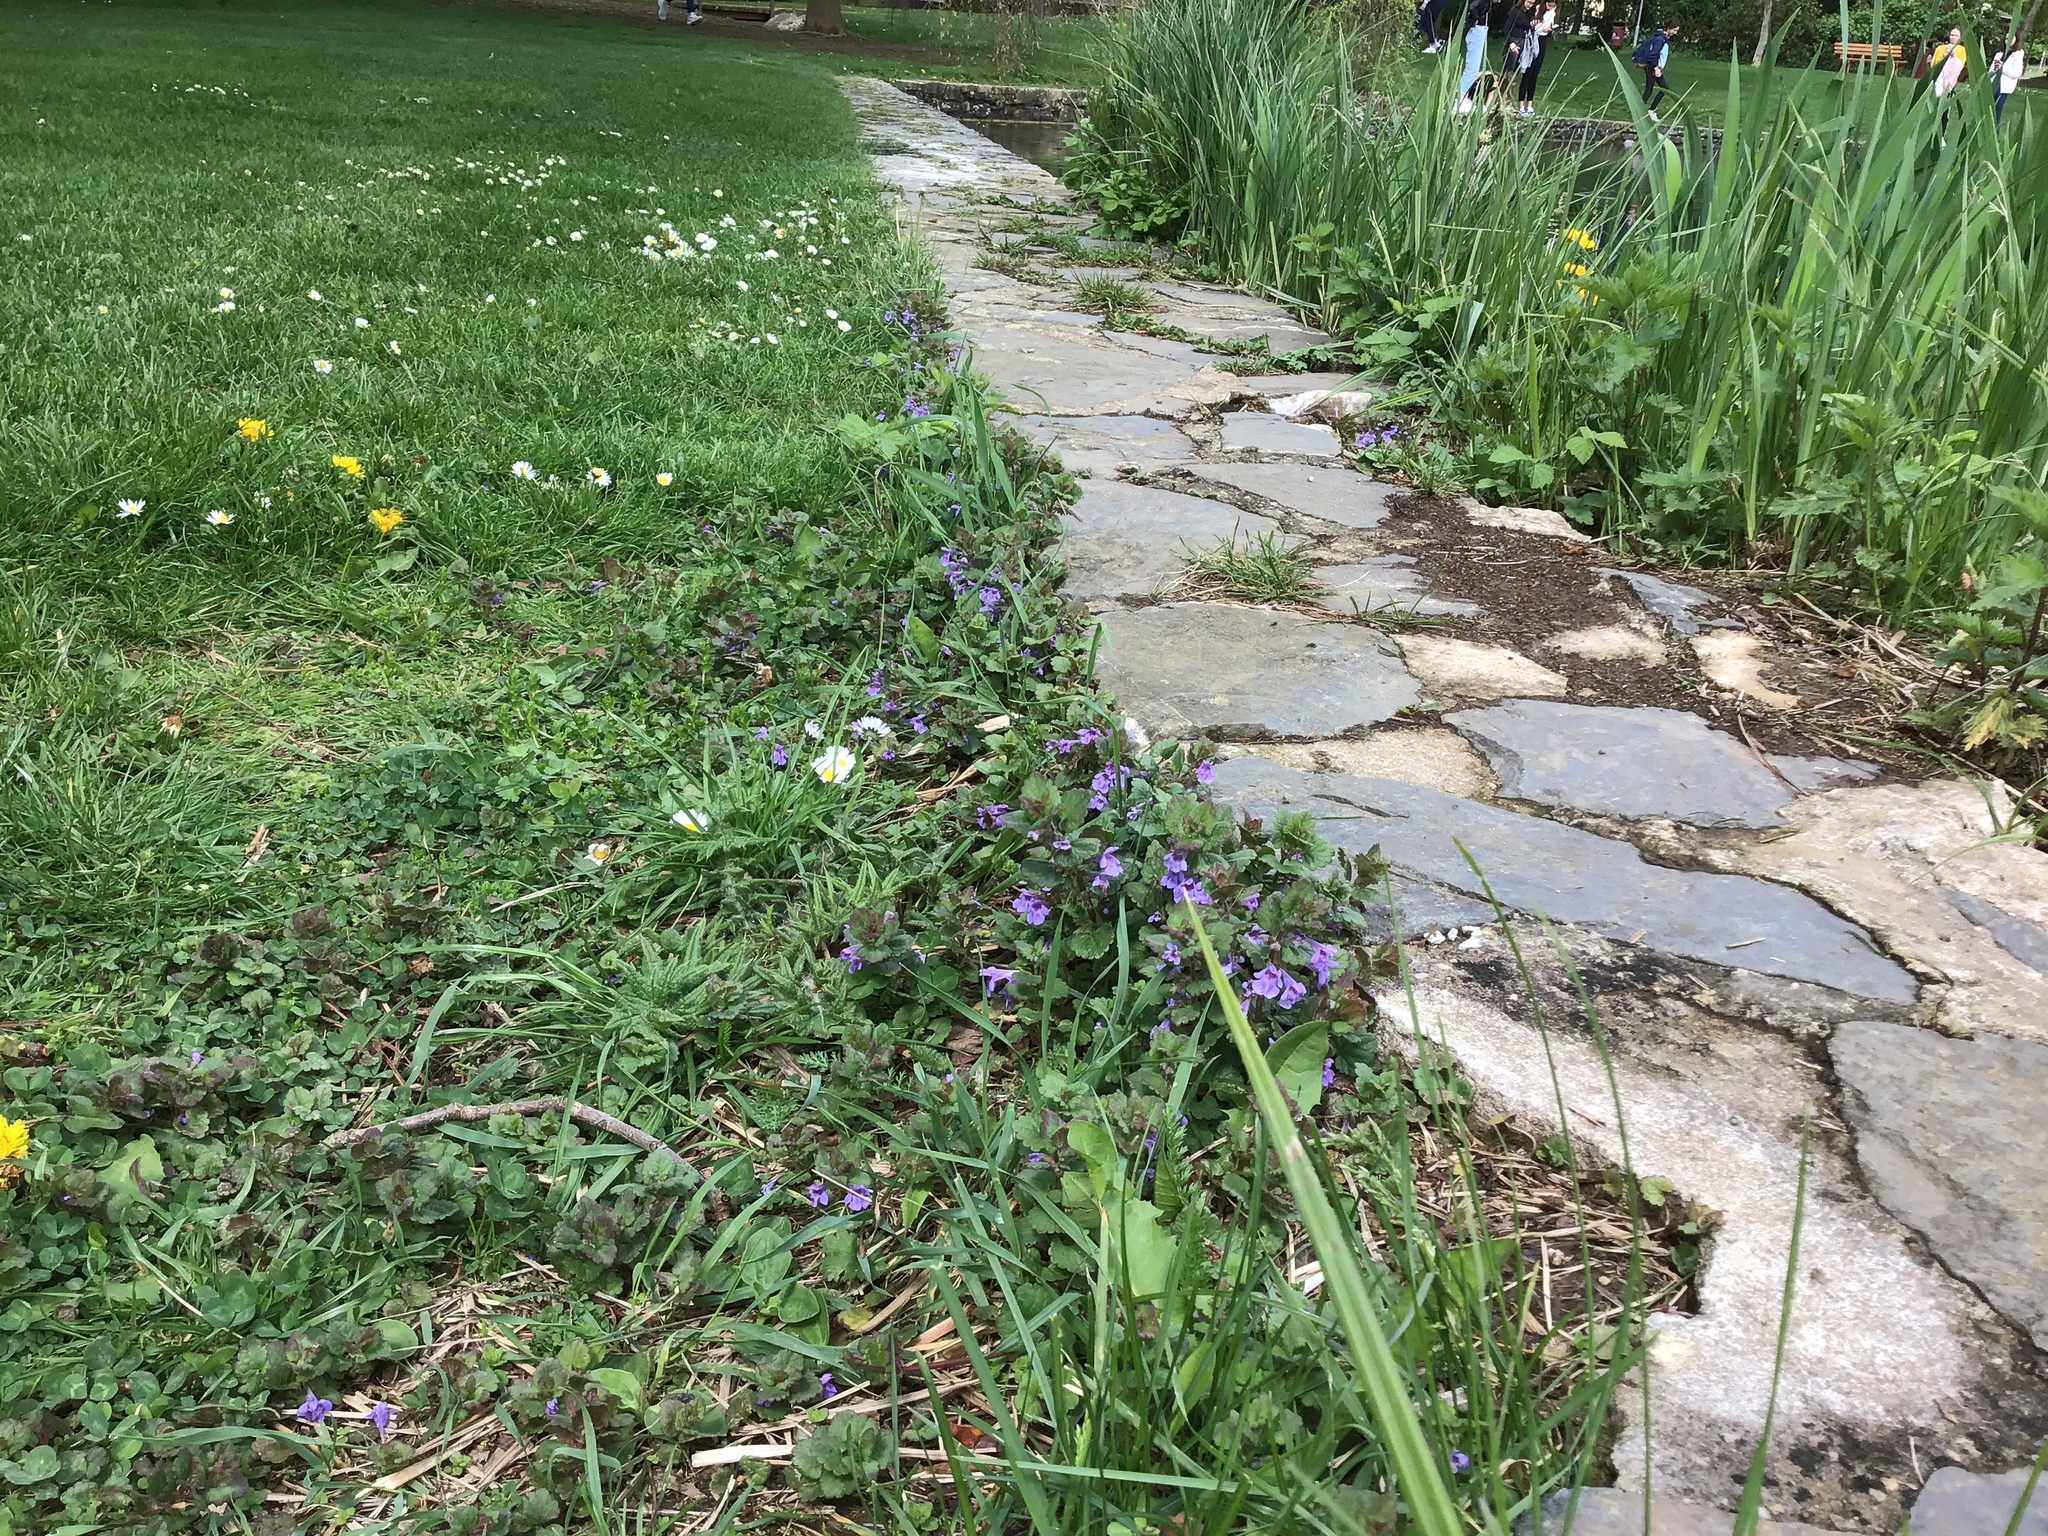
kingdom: Plantae
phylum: Tracheophyta
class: Magnoliopsida
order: Lamiales
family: Lamiaceae
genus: Glechoma
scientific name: Glechoma hederacea
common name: Ground ivy
